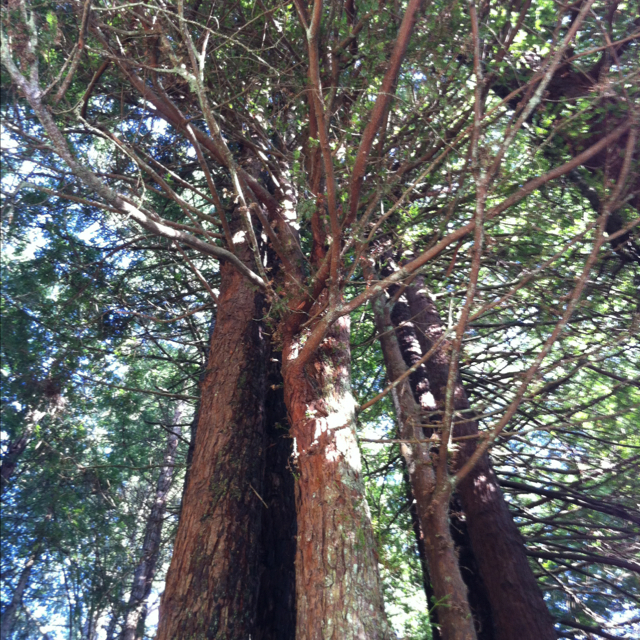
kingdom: Plantae
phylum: Tracheophyta
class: Pinopsida
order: Pinales
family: Cupressaceae
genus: Sequoia
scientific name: Sequoia sempervirens
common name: Coast redwood
